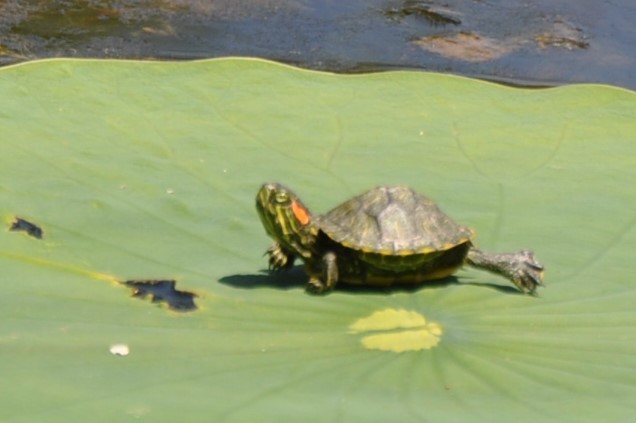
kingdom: Animalia
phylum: Chordata
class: Testudines
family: Emydidae
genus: Trachemys
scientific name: Trachemys scripta
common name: Slider
